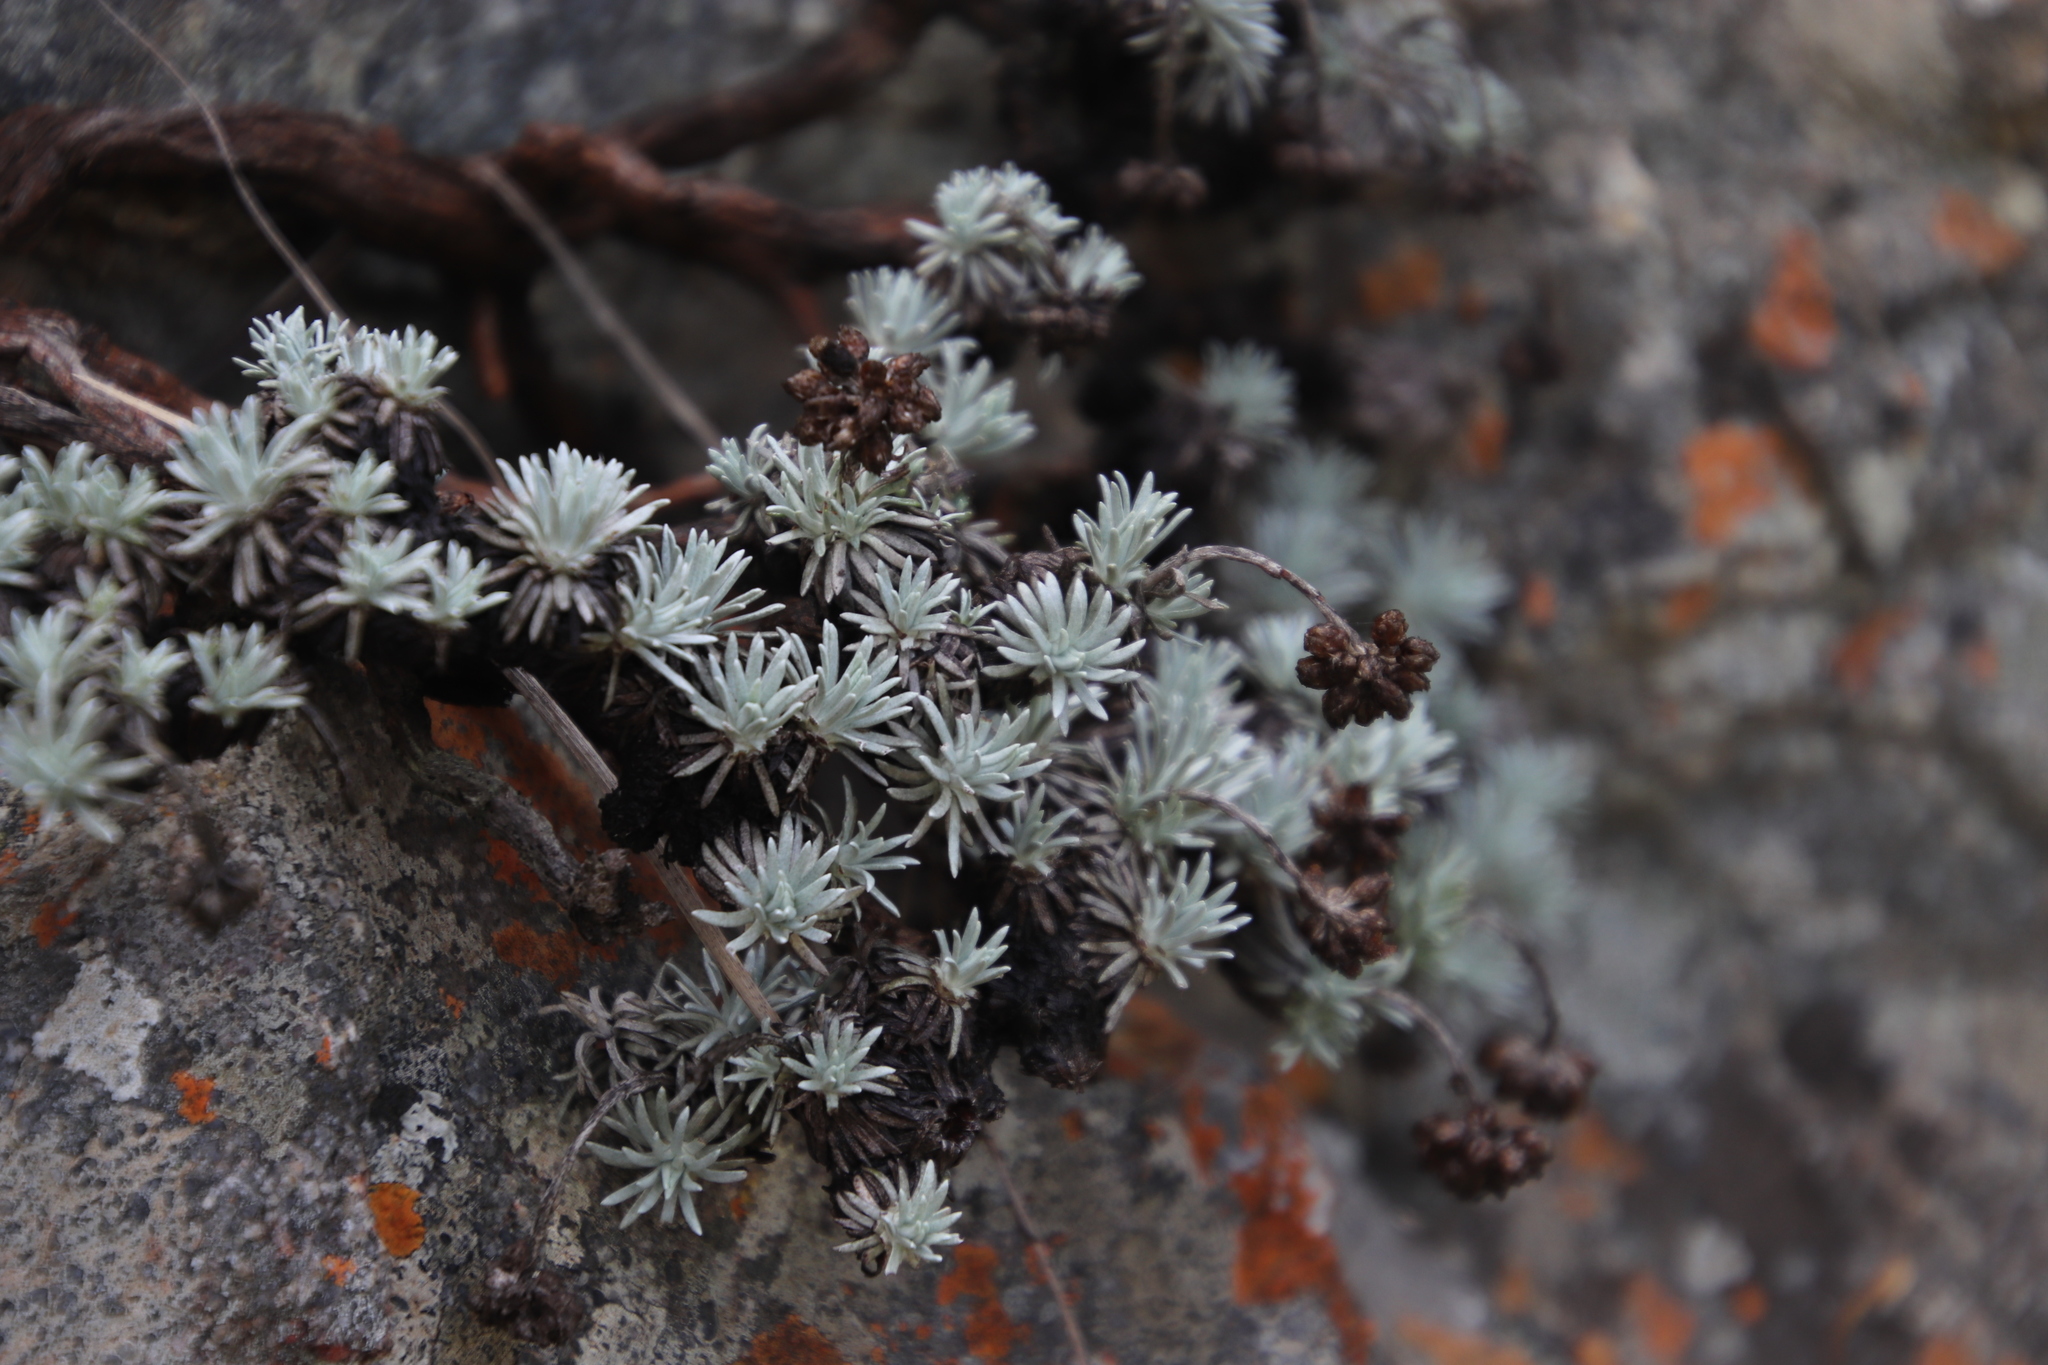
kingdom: Plantae
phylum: Tracheophyta
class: Magnoliopsida
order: Asterales
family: Asteraceae
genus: Helichrysum
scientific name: Helichrysum galpinii
